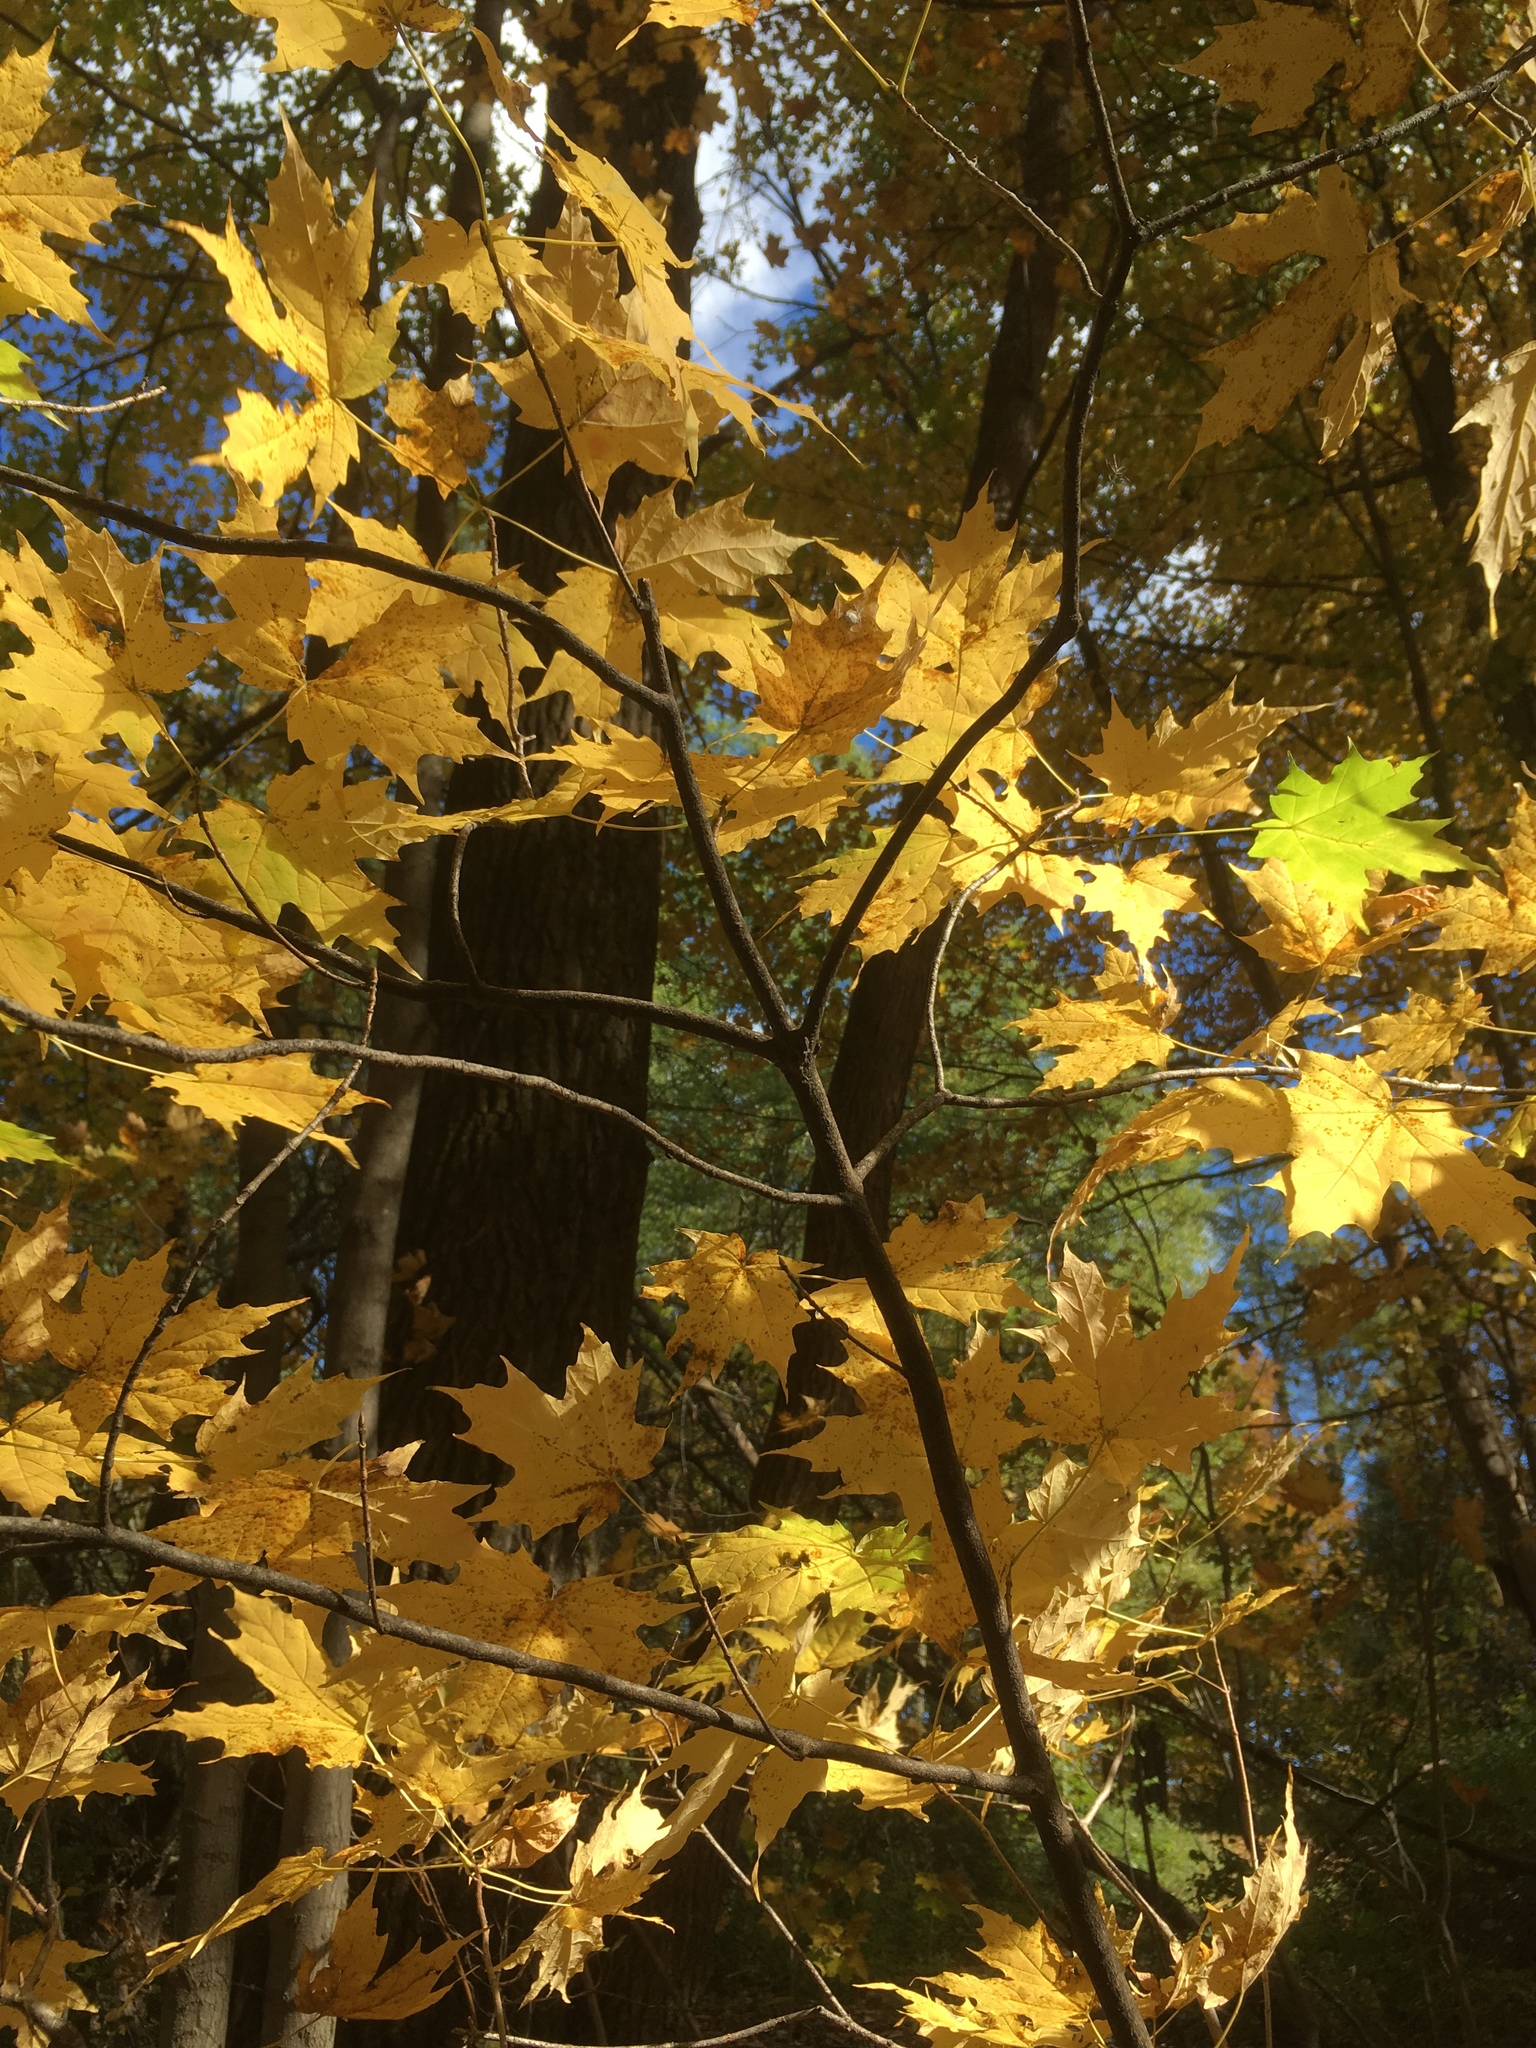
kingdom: Plantae
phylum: Tracheophyta
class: Magnoliopsida
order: Sapindales
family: Sapindaceae
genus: Acer
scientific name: Acer saccharum
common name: Sugar maple
